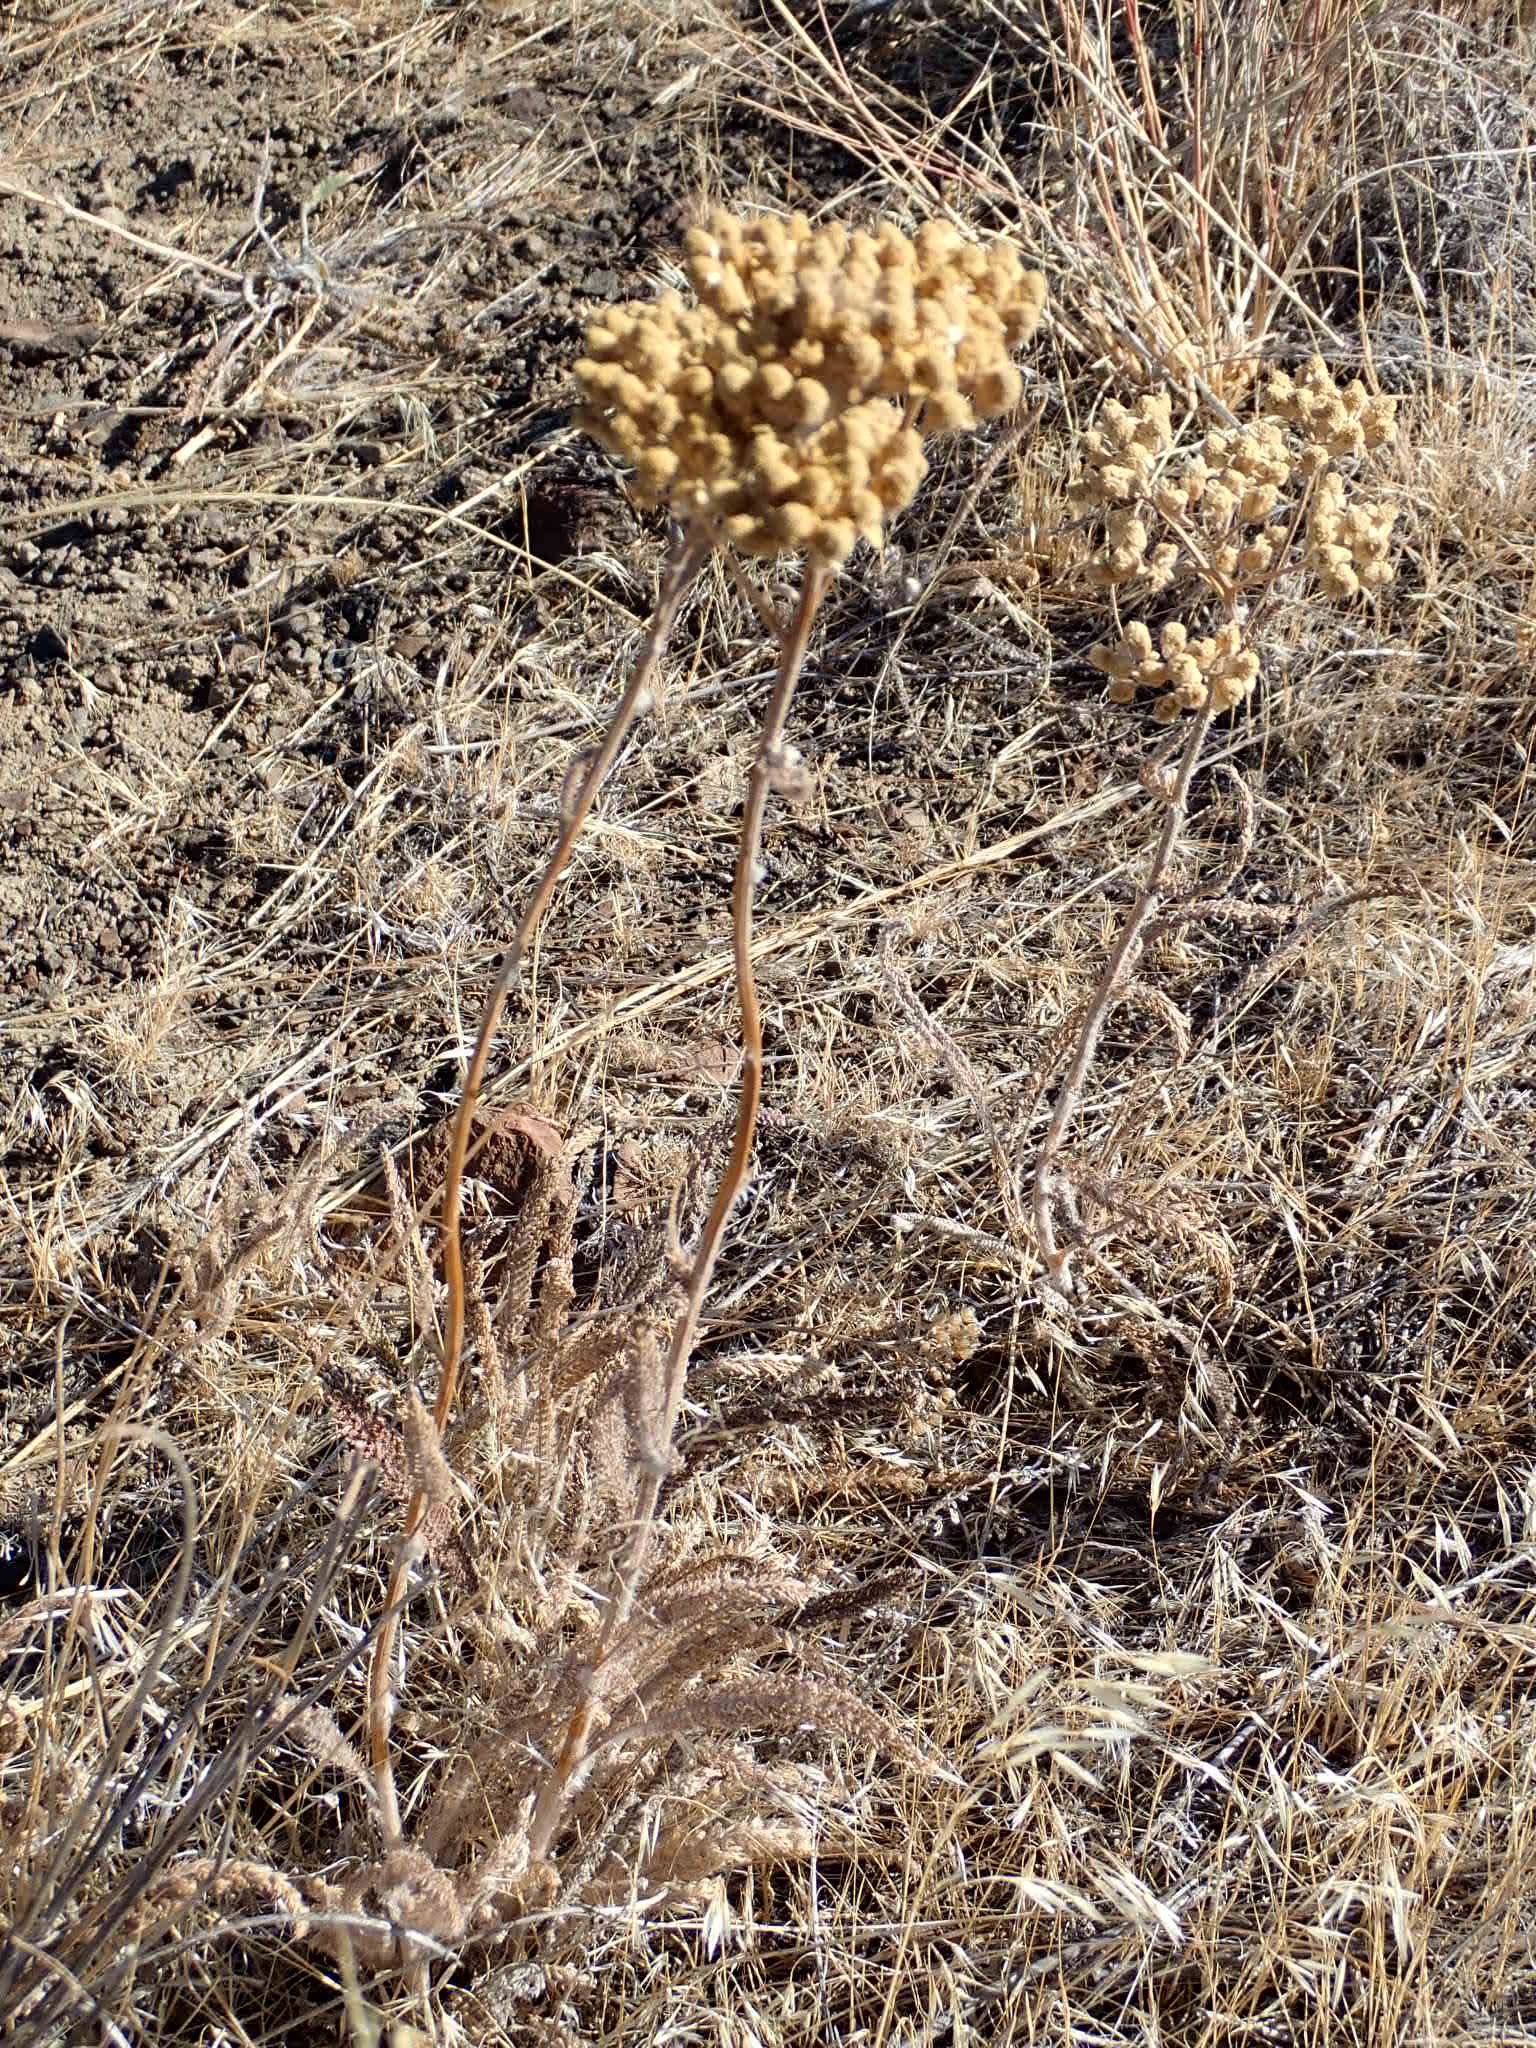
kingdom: Plantae
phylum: Tracheophyta
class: Magnoliopsida
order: Asterales
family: Asteraceae
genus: Achillea
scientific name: Achillea millefolium
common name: Yarrow
